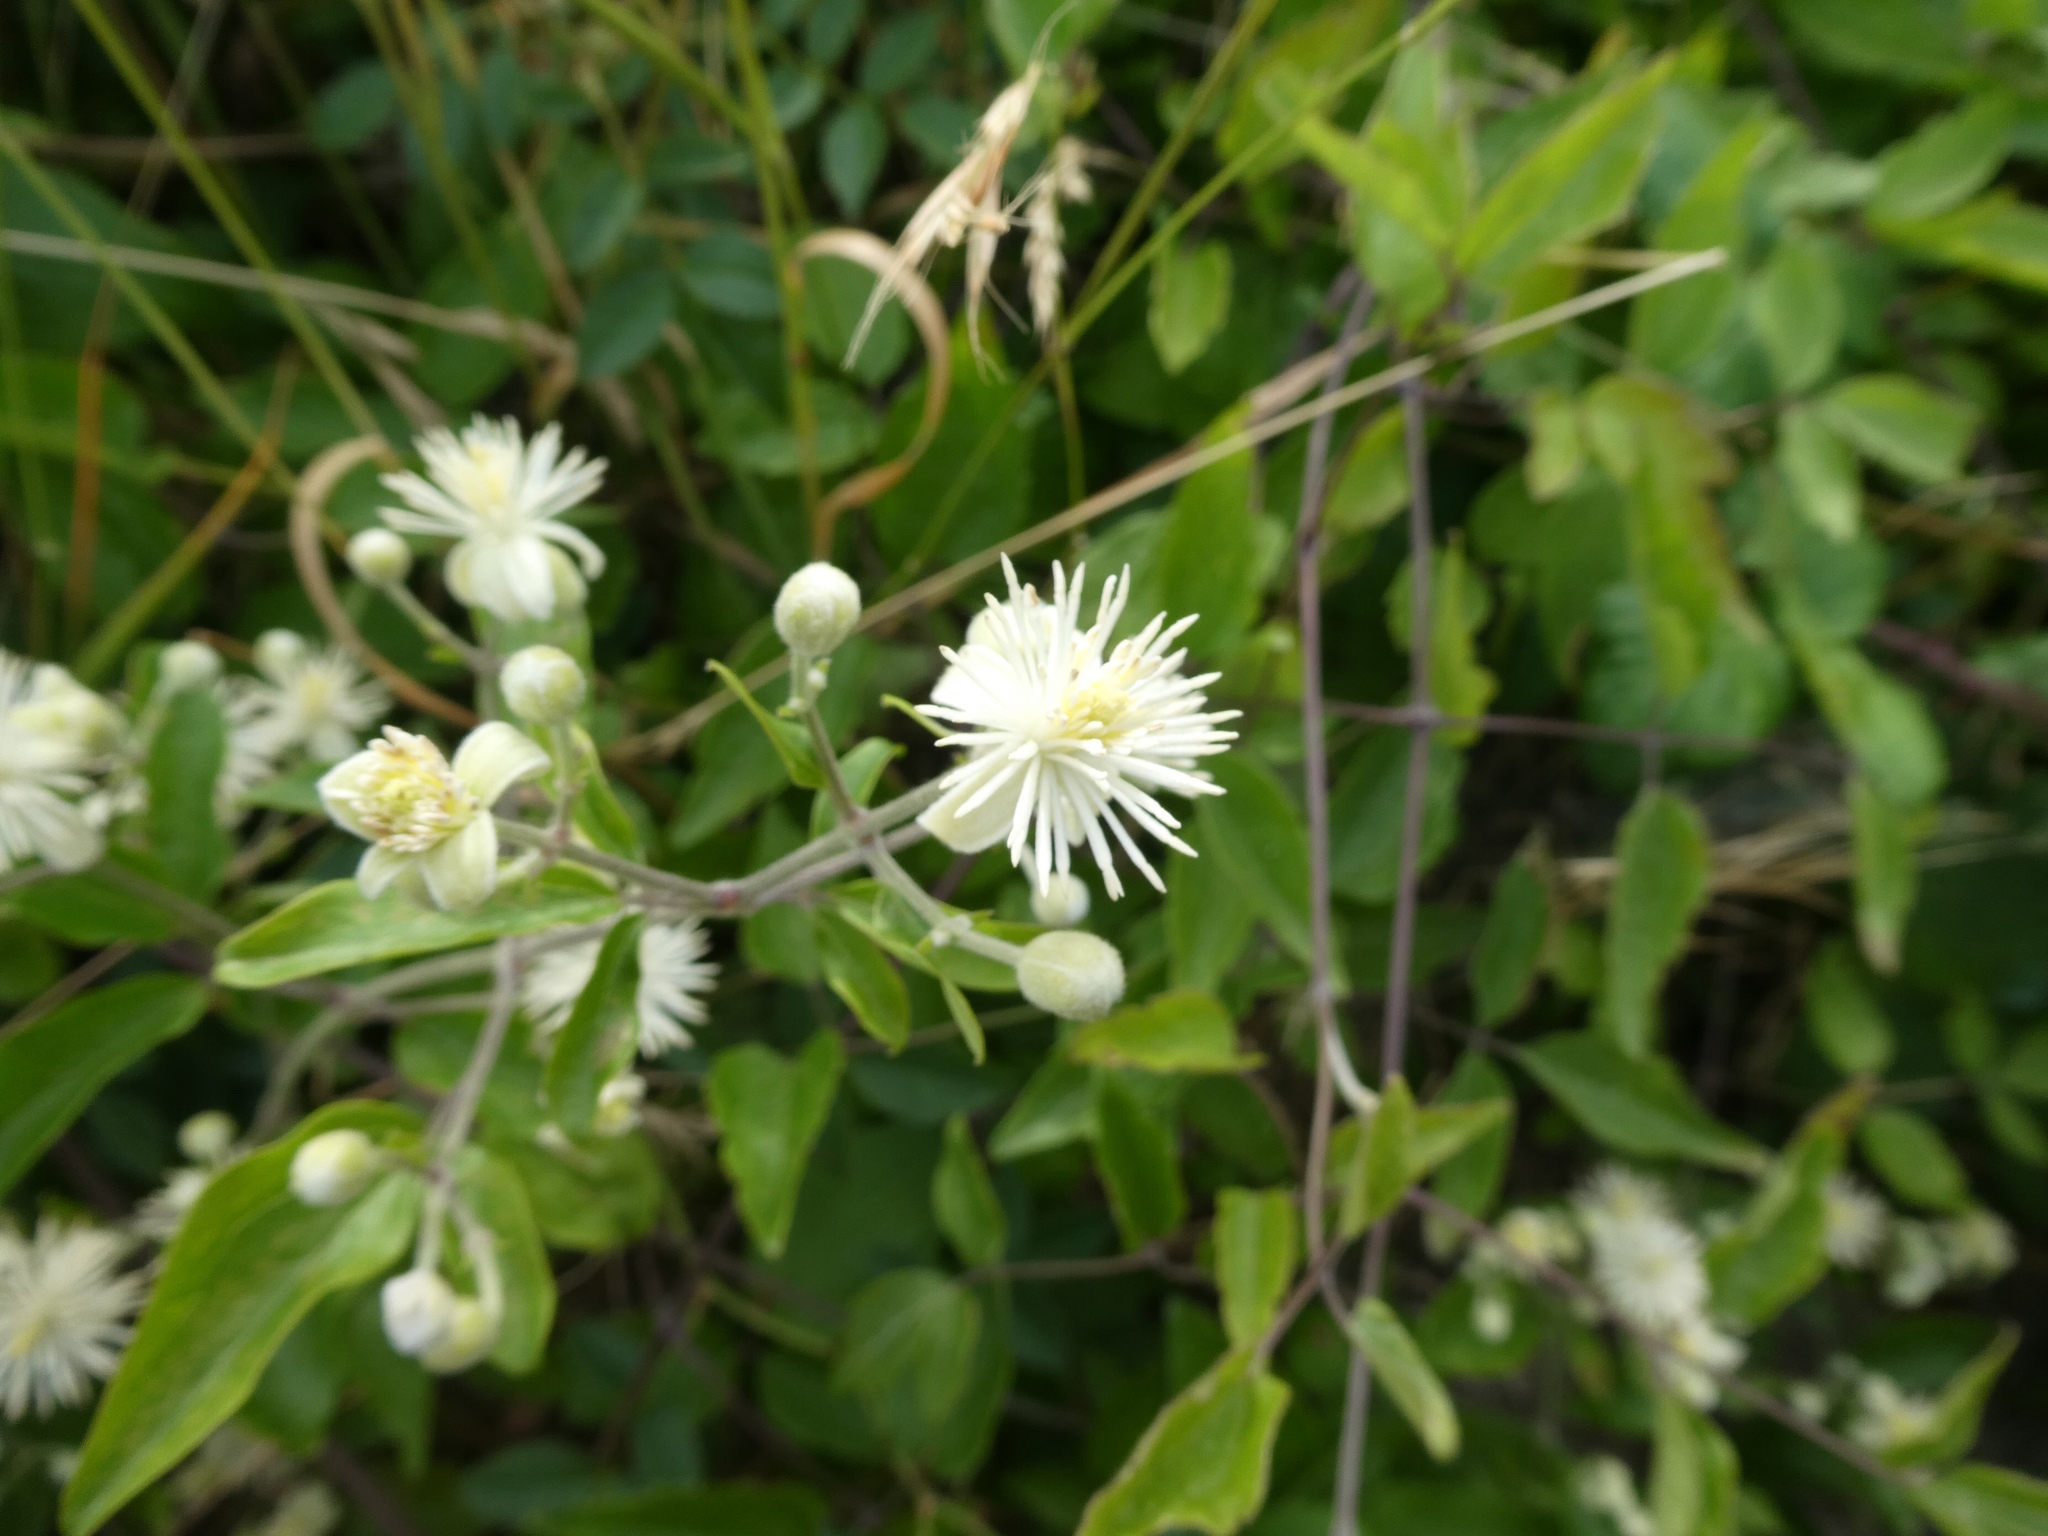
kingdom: Plantae
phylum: Tracheophyta
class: Magnoliopsida
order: Ranunculales
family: Ranunculaceae
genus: Clematis
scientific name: Clematis vitalba
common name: Evergreen clematis
